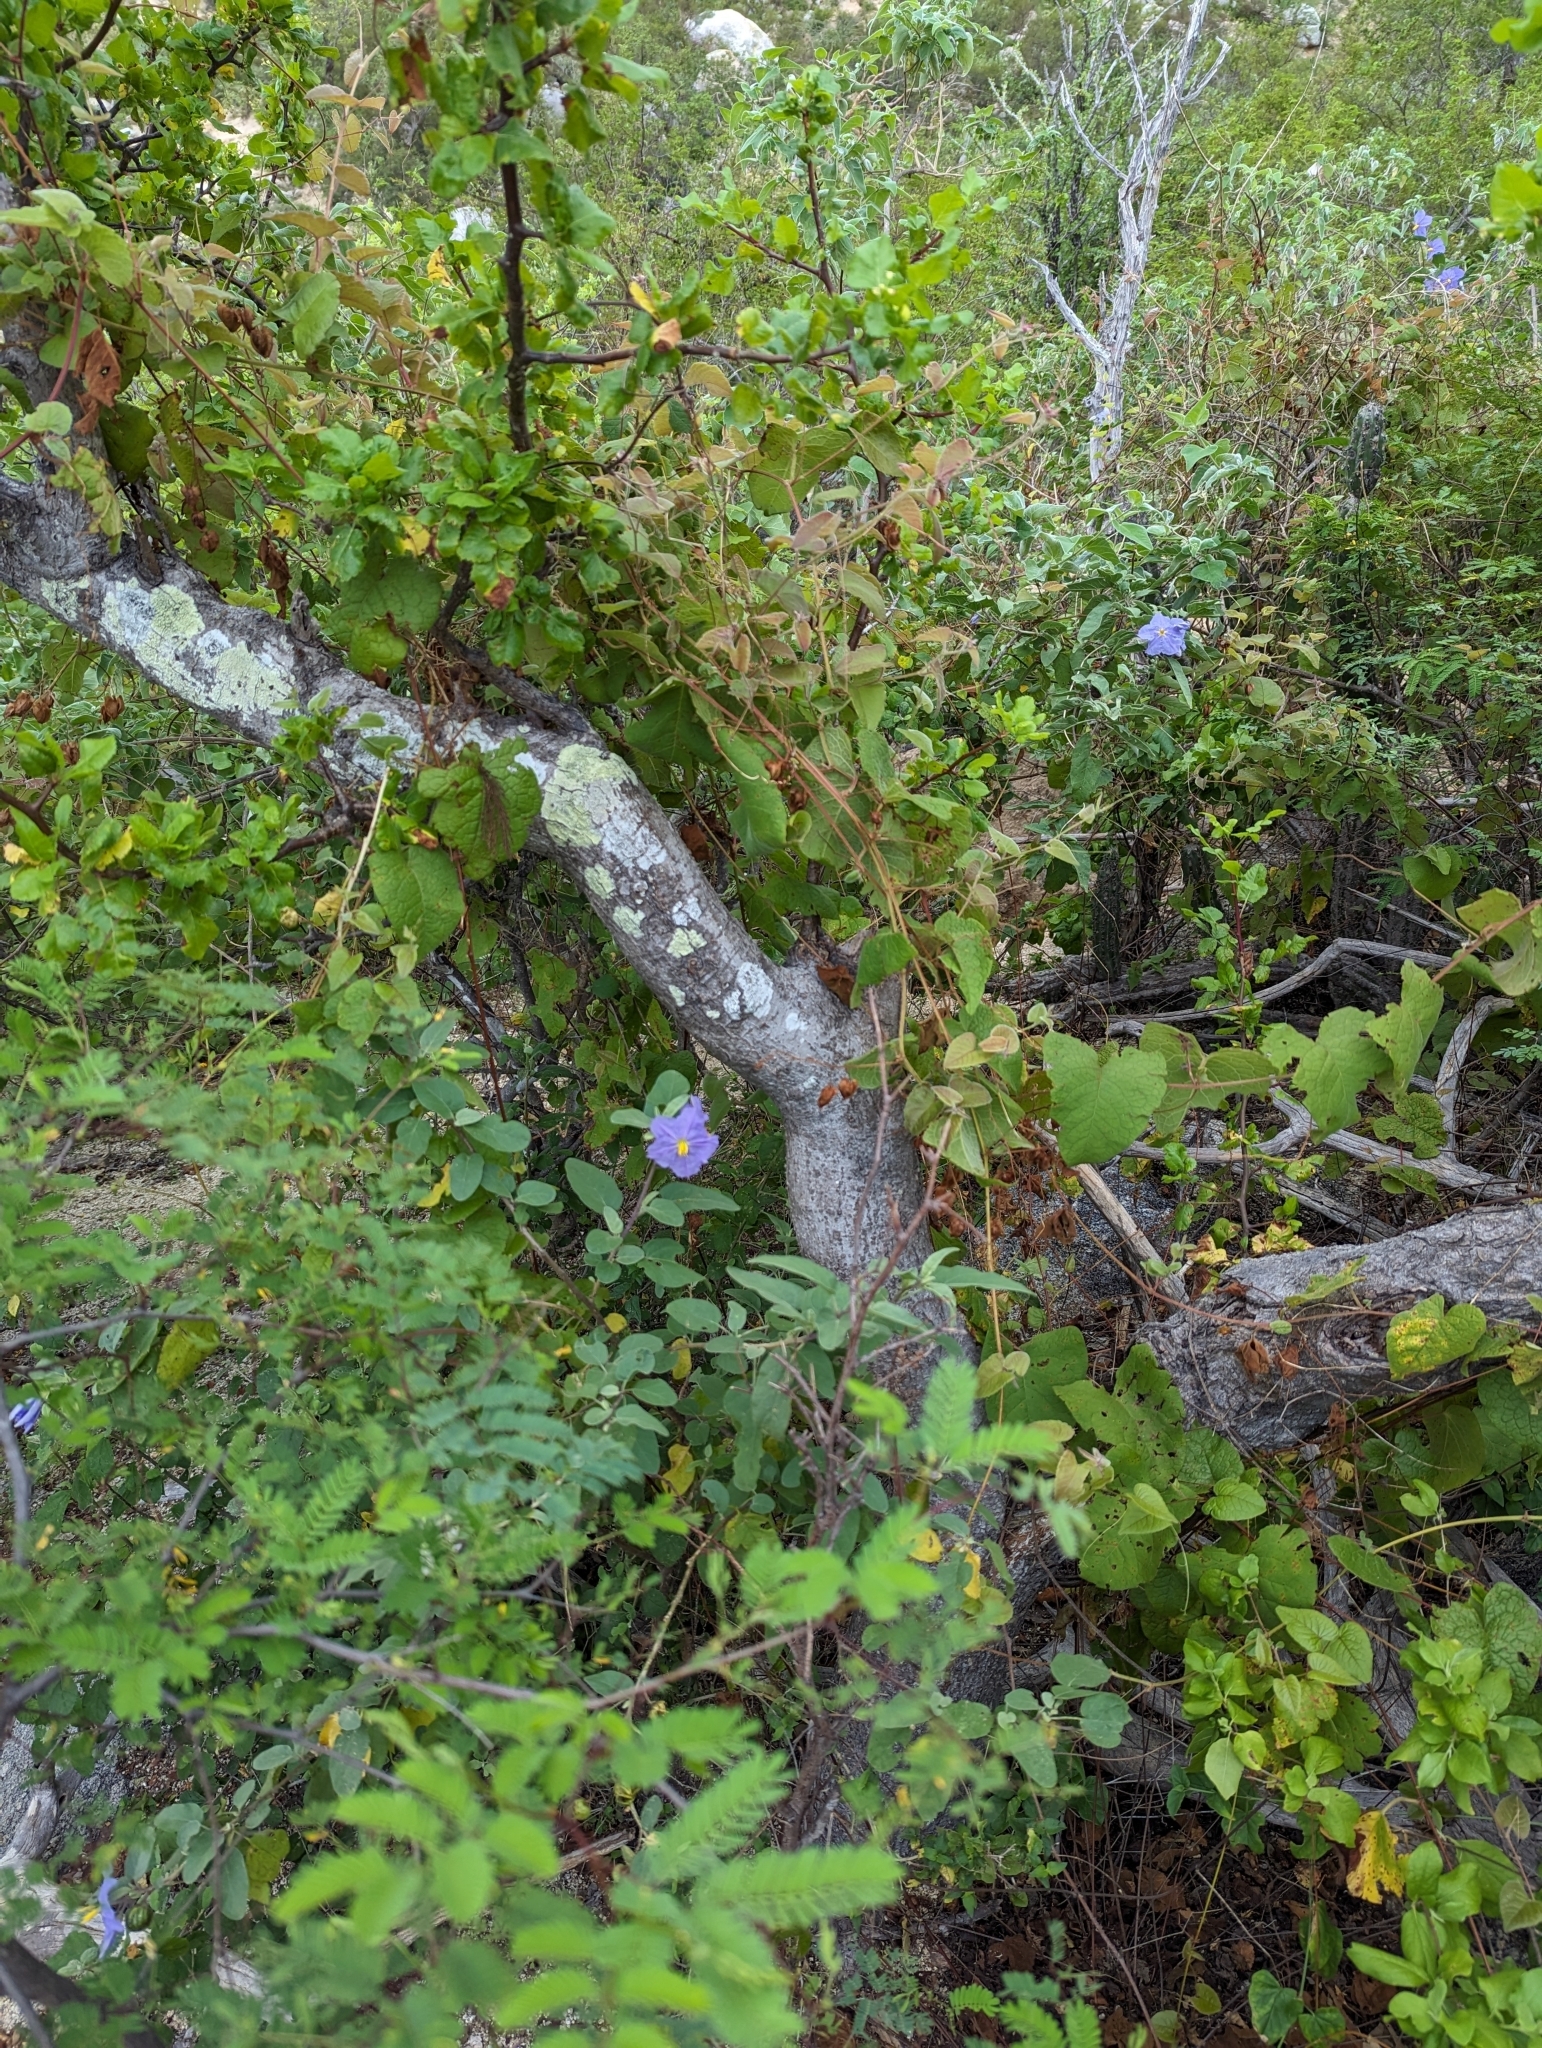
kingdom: Plantae
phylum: Tracheophyta
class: Magnoliopsida
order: Sapindales
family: Burseraceae
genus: Bursera
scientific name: Bursera epinnata
